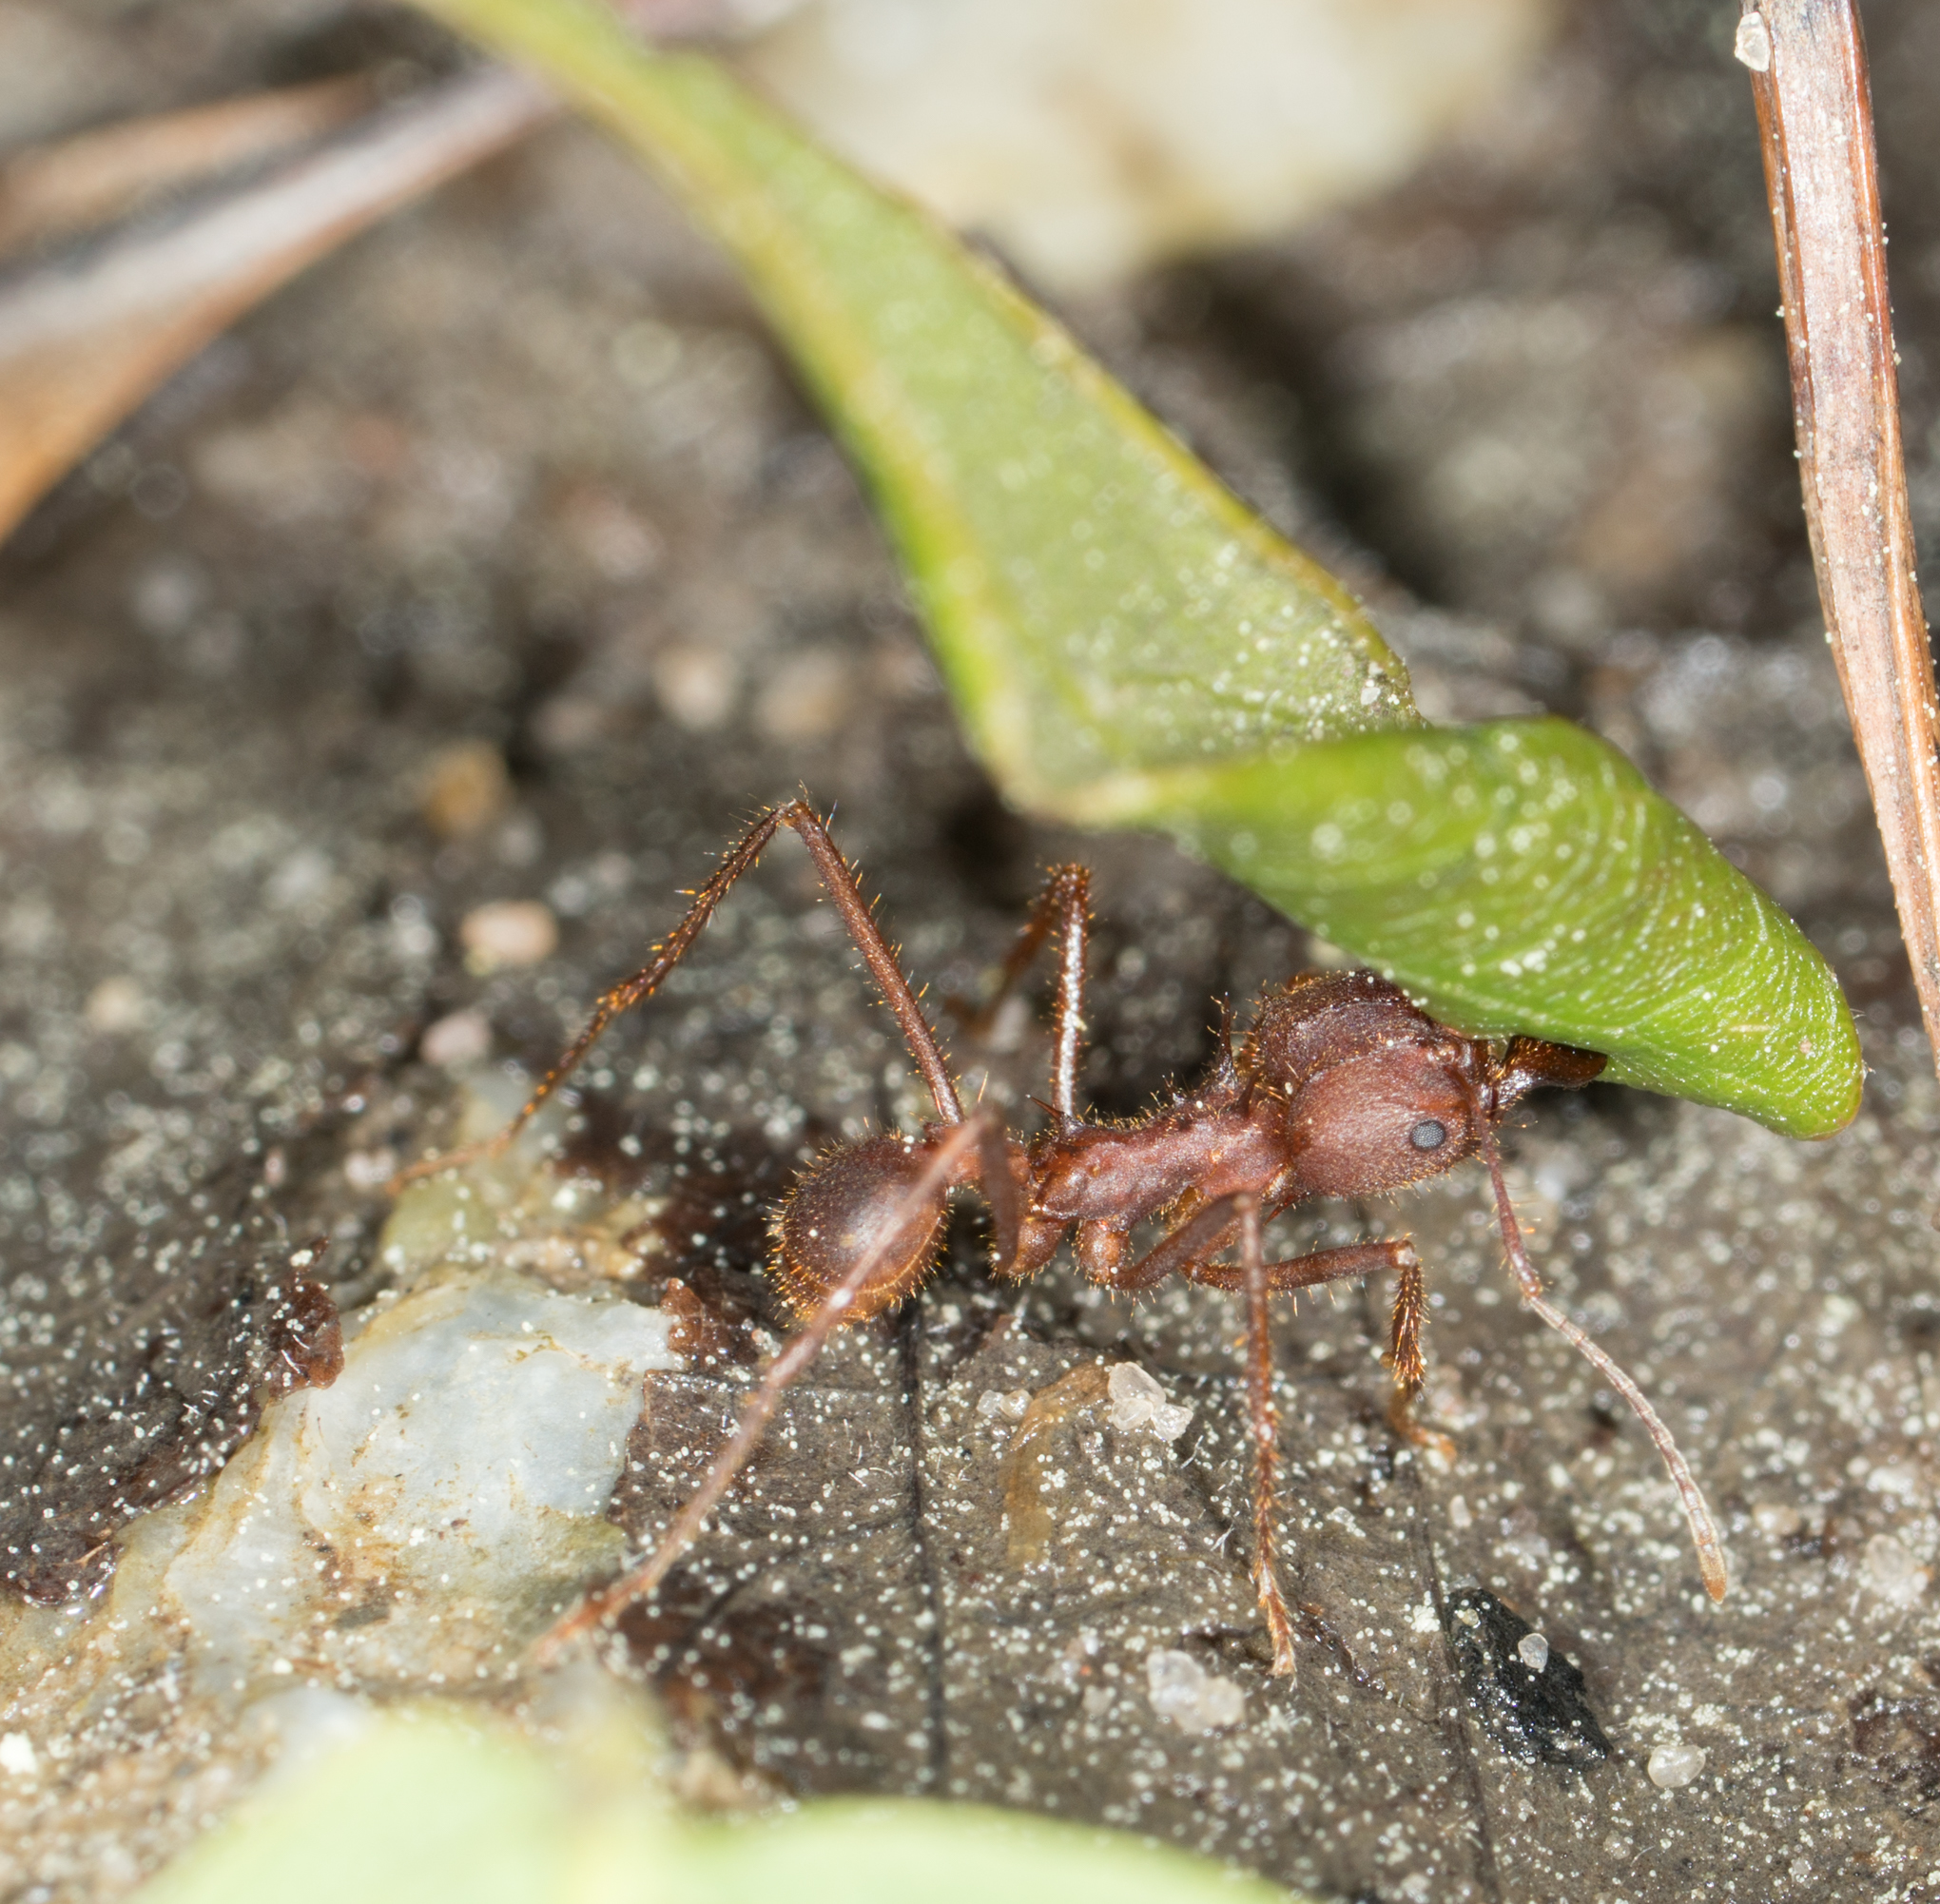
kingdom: Animalia
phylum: Arthropoda
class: Insecta
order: Hymenoptera
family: Formicidae
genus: Atta
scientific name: Atta texana
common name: Texas leafcutting ant
